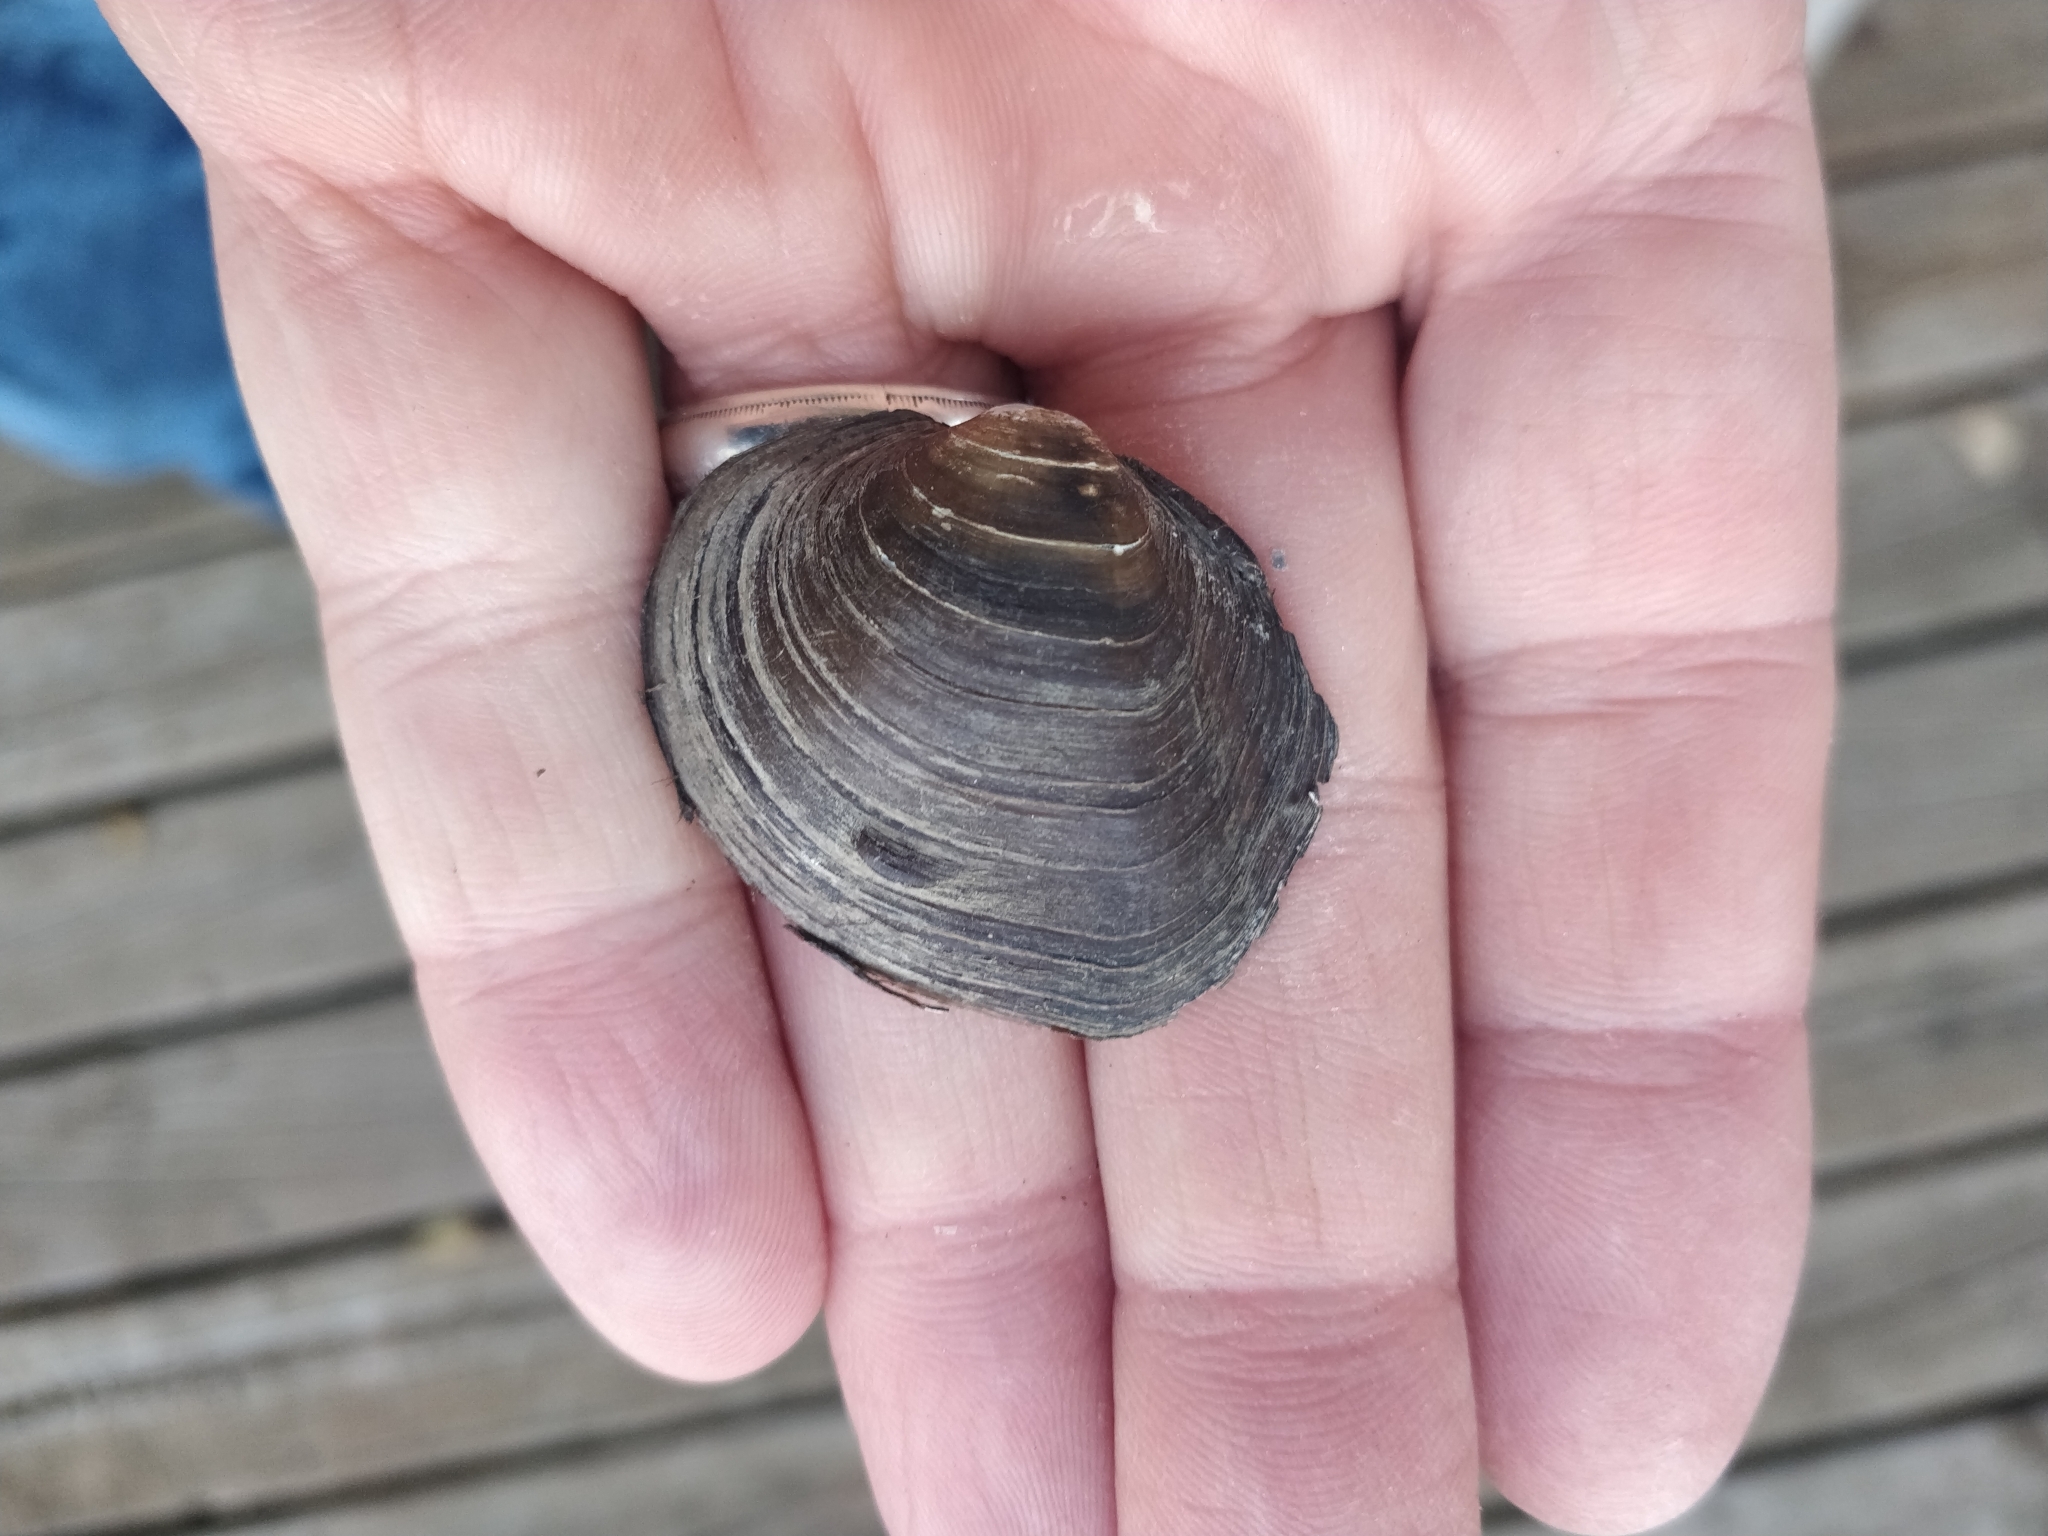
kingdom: Animalia
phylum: Mollusca
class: Bivalvia
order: Unionida
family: Unionidae
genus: Cyclonaias
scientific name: Cyclonaias pustulosa
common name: Pimpleback
